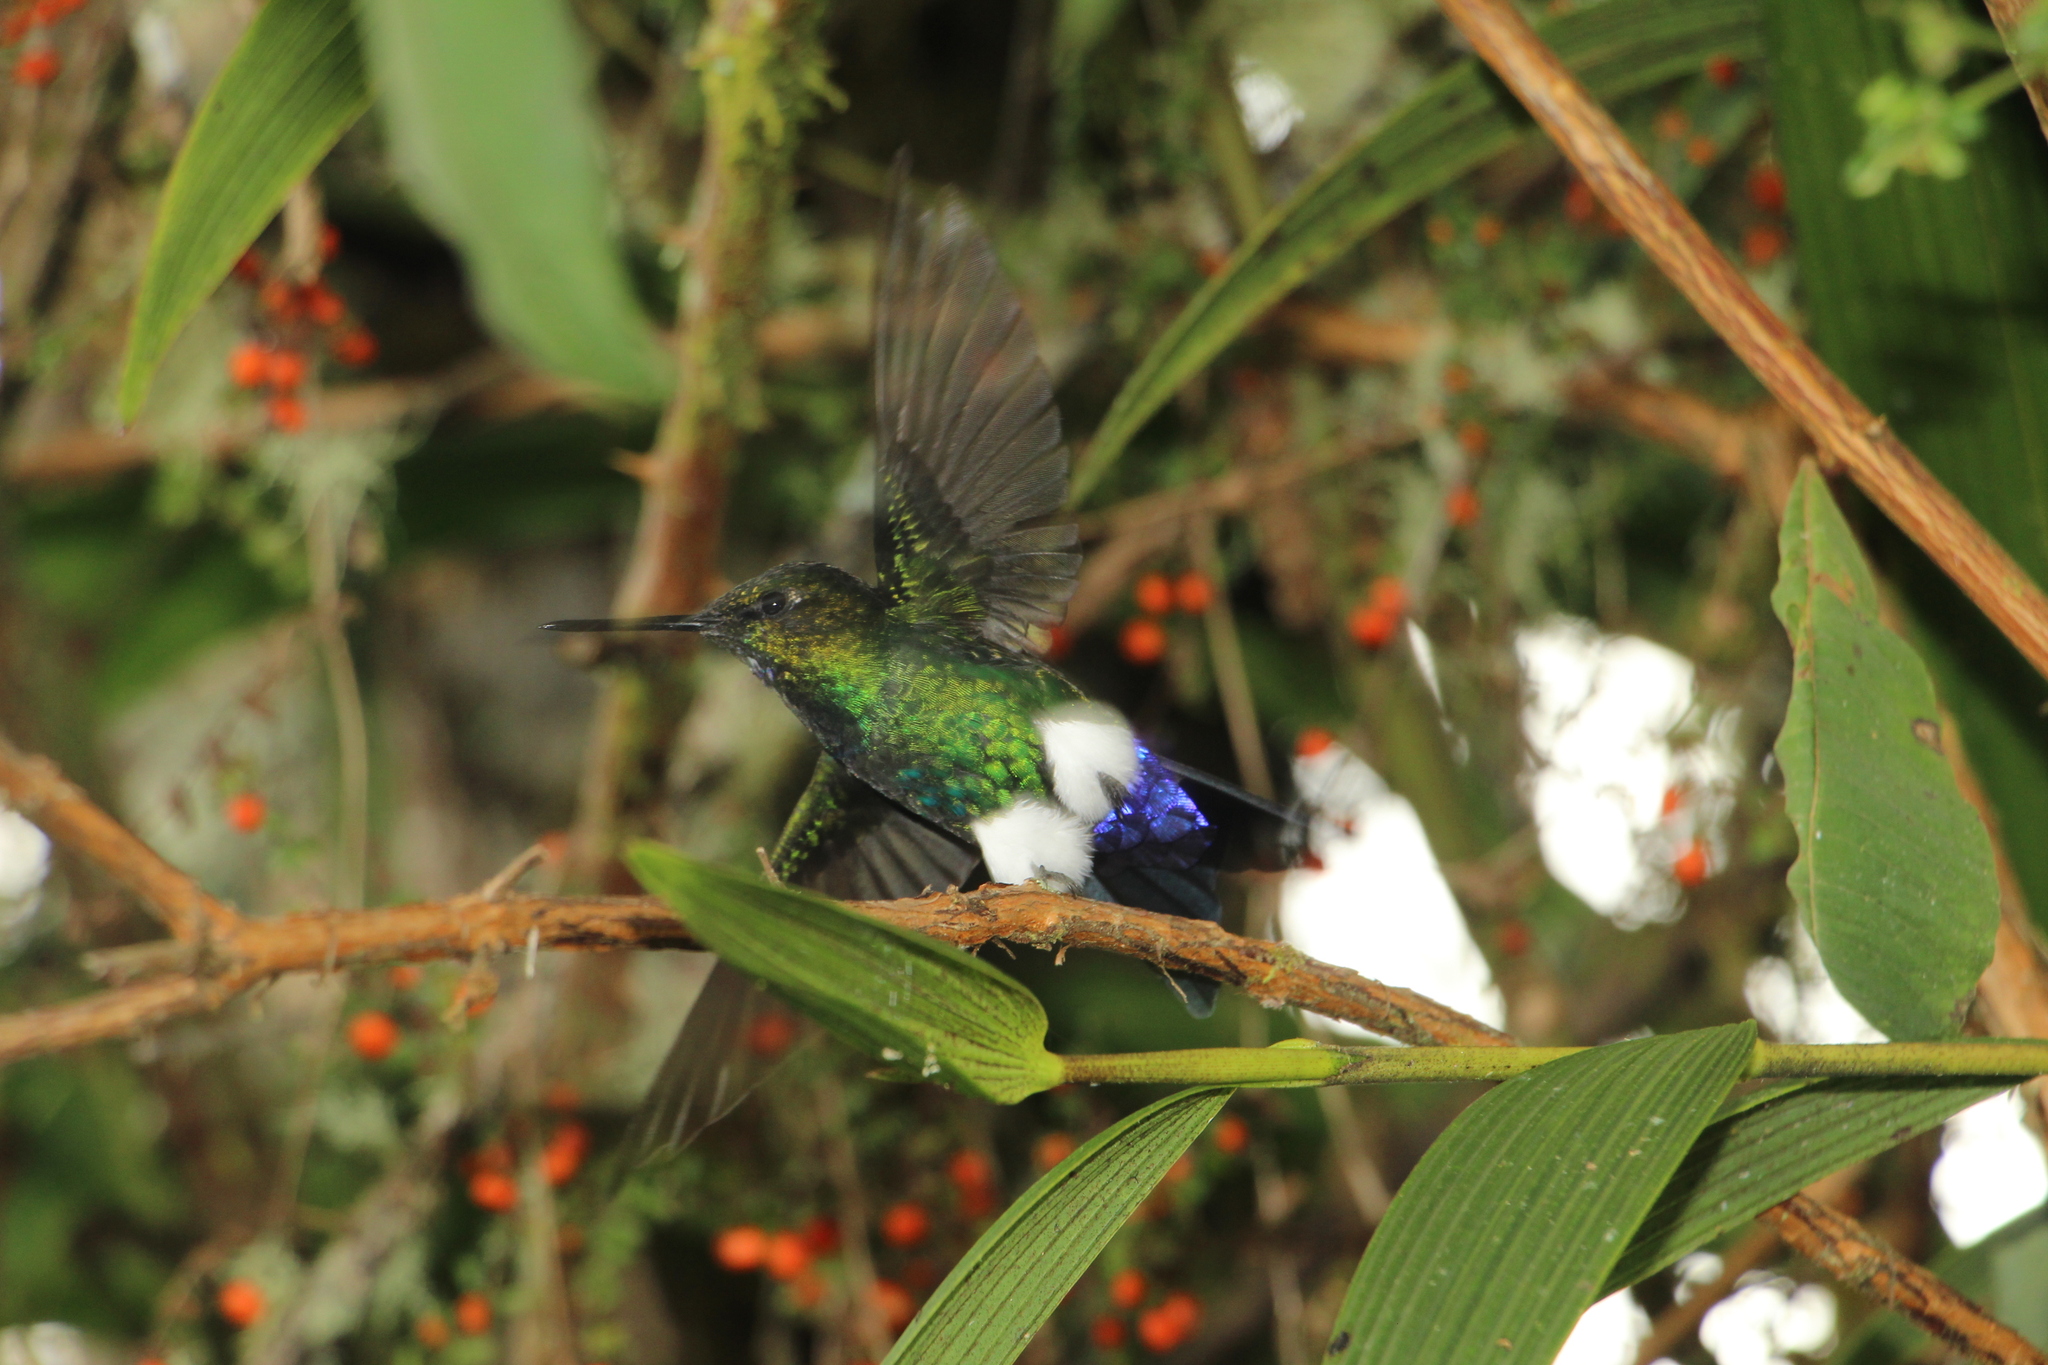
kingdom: Animalia
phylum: Chordata
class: Aves
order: Apodiformes
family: Trochilidae
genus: Eriocnemis
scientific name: Eriocnemis vestita
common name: Glowing puffleg
